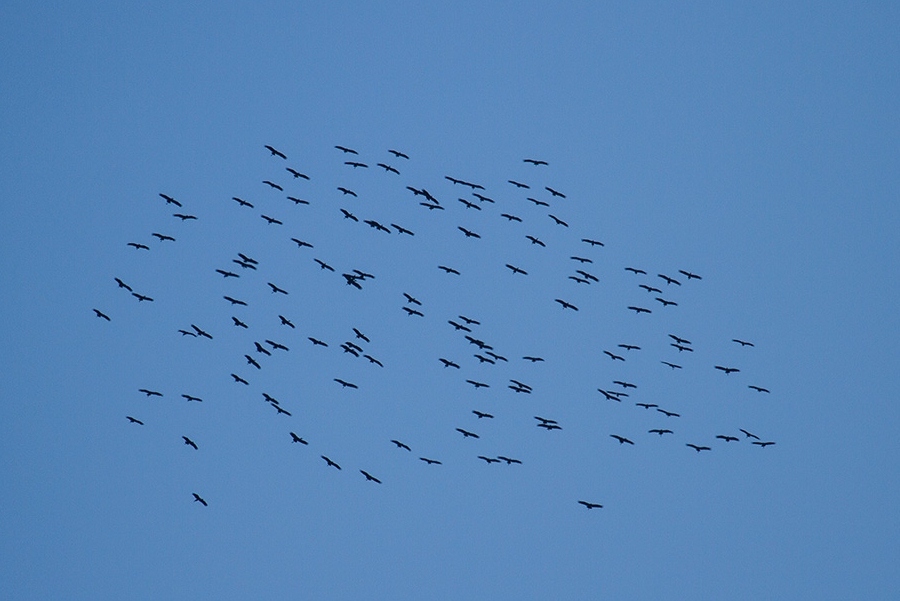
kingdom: Animalia
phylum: Chordata
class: Aves
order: Ciconiiformes
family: Ciconiidae
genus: Anastomus
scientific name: Anastomus lamelligerus
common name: African openbill
